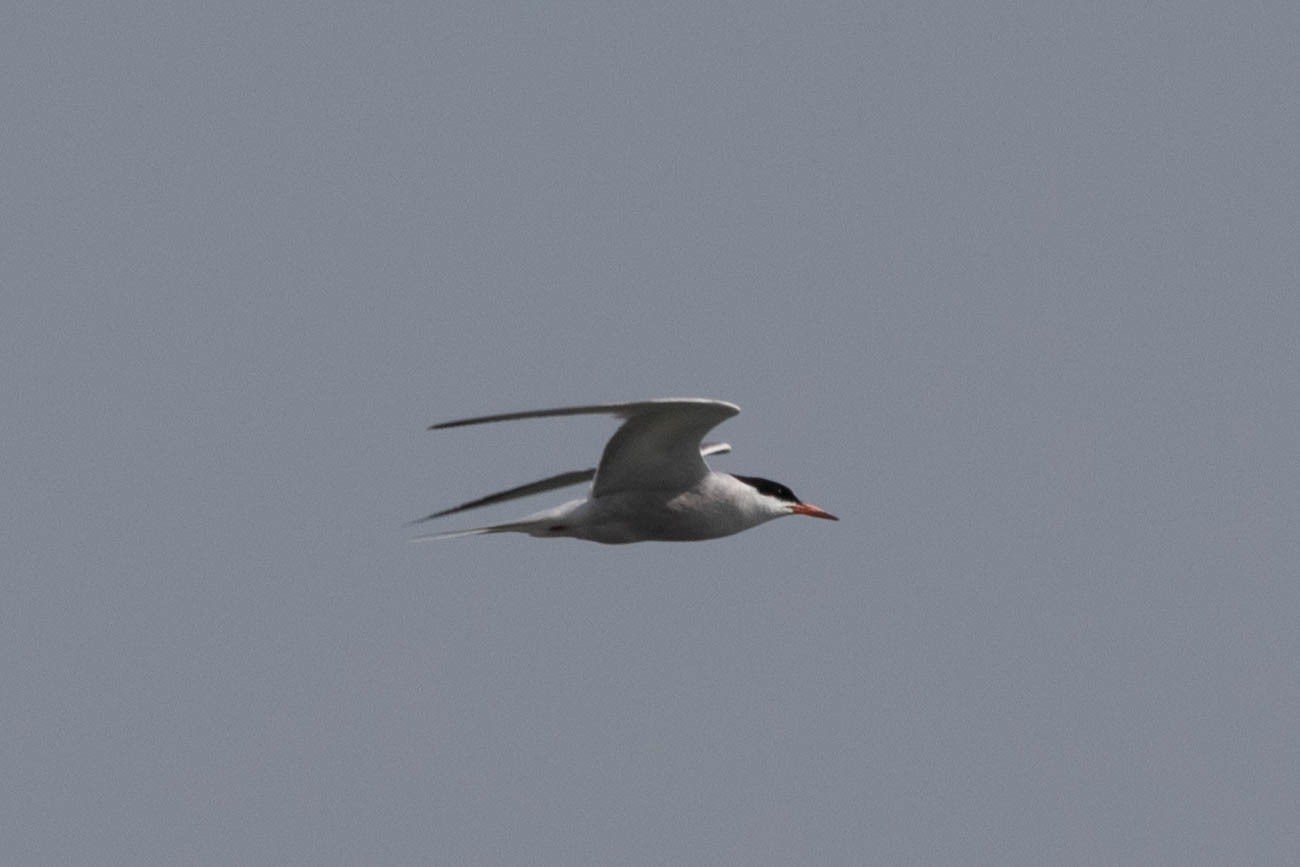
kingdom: Animalia
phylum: Chordata
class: Aves
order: Charadriiformes
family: Laridae
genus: Sterna
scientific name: Sterna hirundo
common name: Common tern
